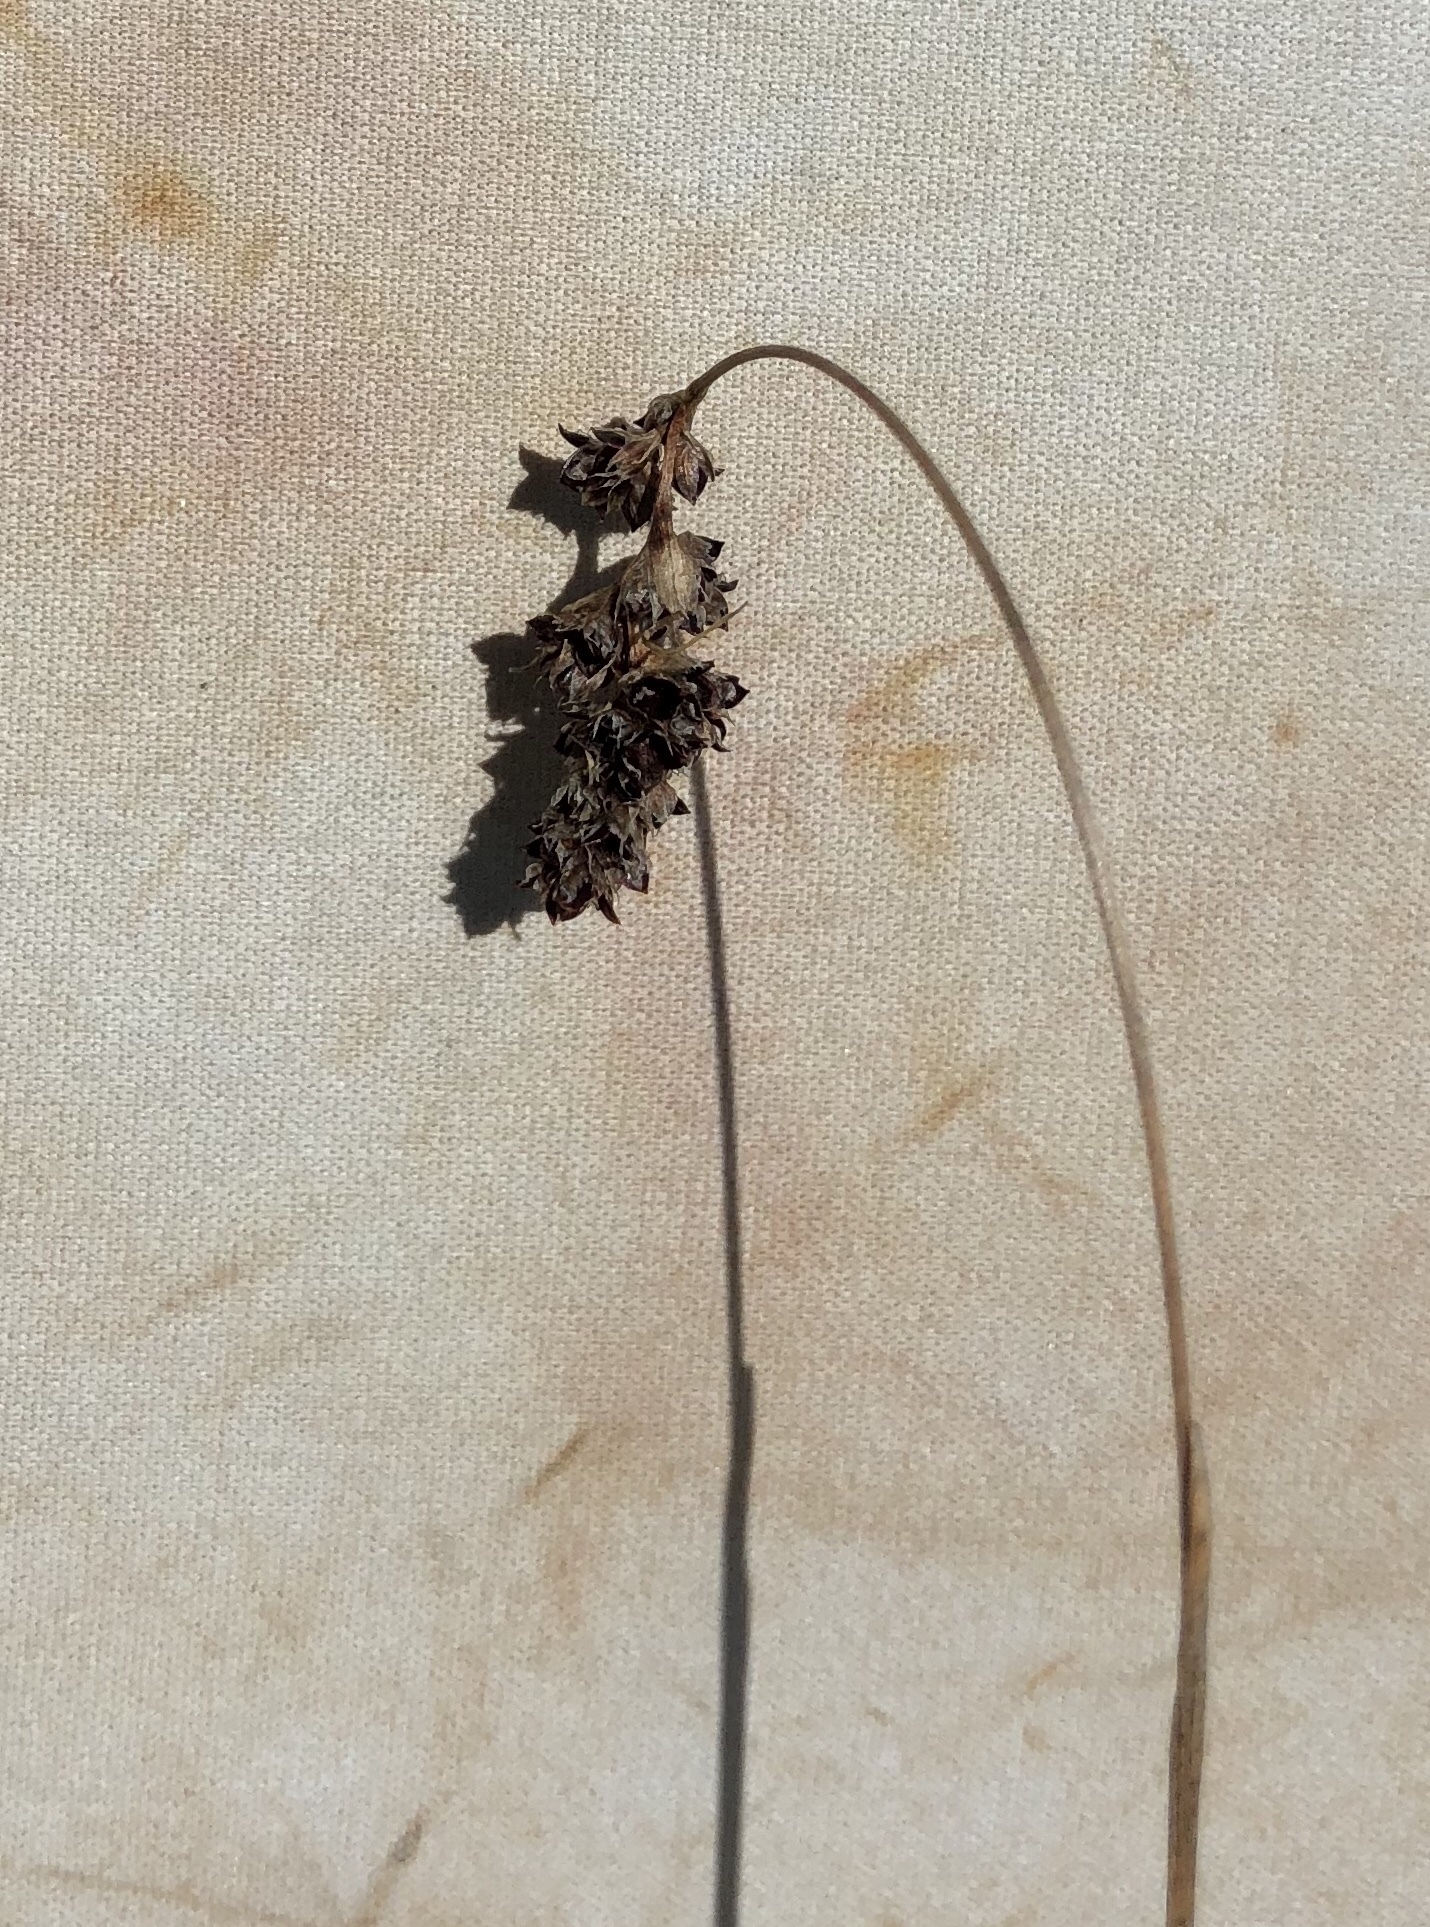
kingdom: Plantae
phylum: Tracheophyta
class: Liliopsida
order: Poales
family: Juncaceae
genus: Luzula
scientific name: Luzula spicata
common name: Spiked wood-rush
